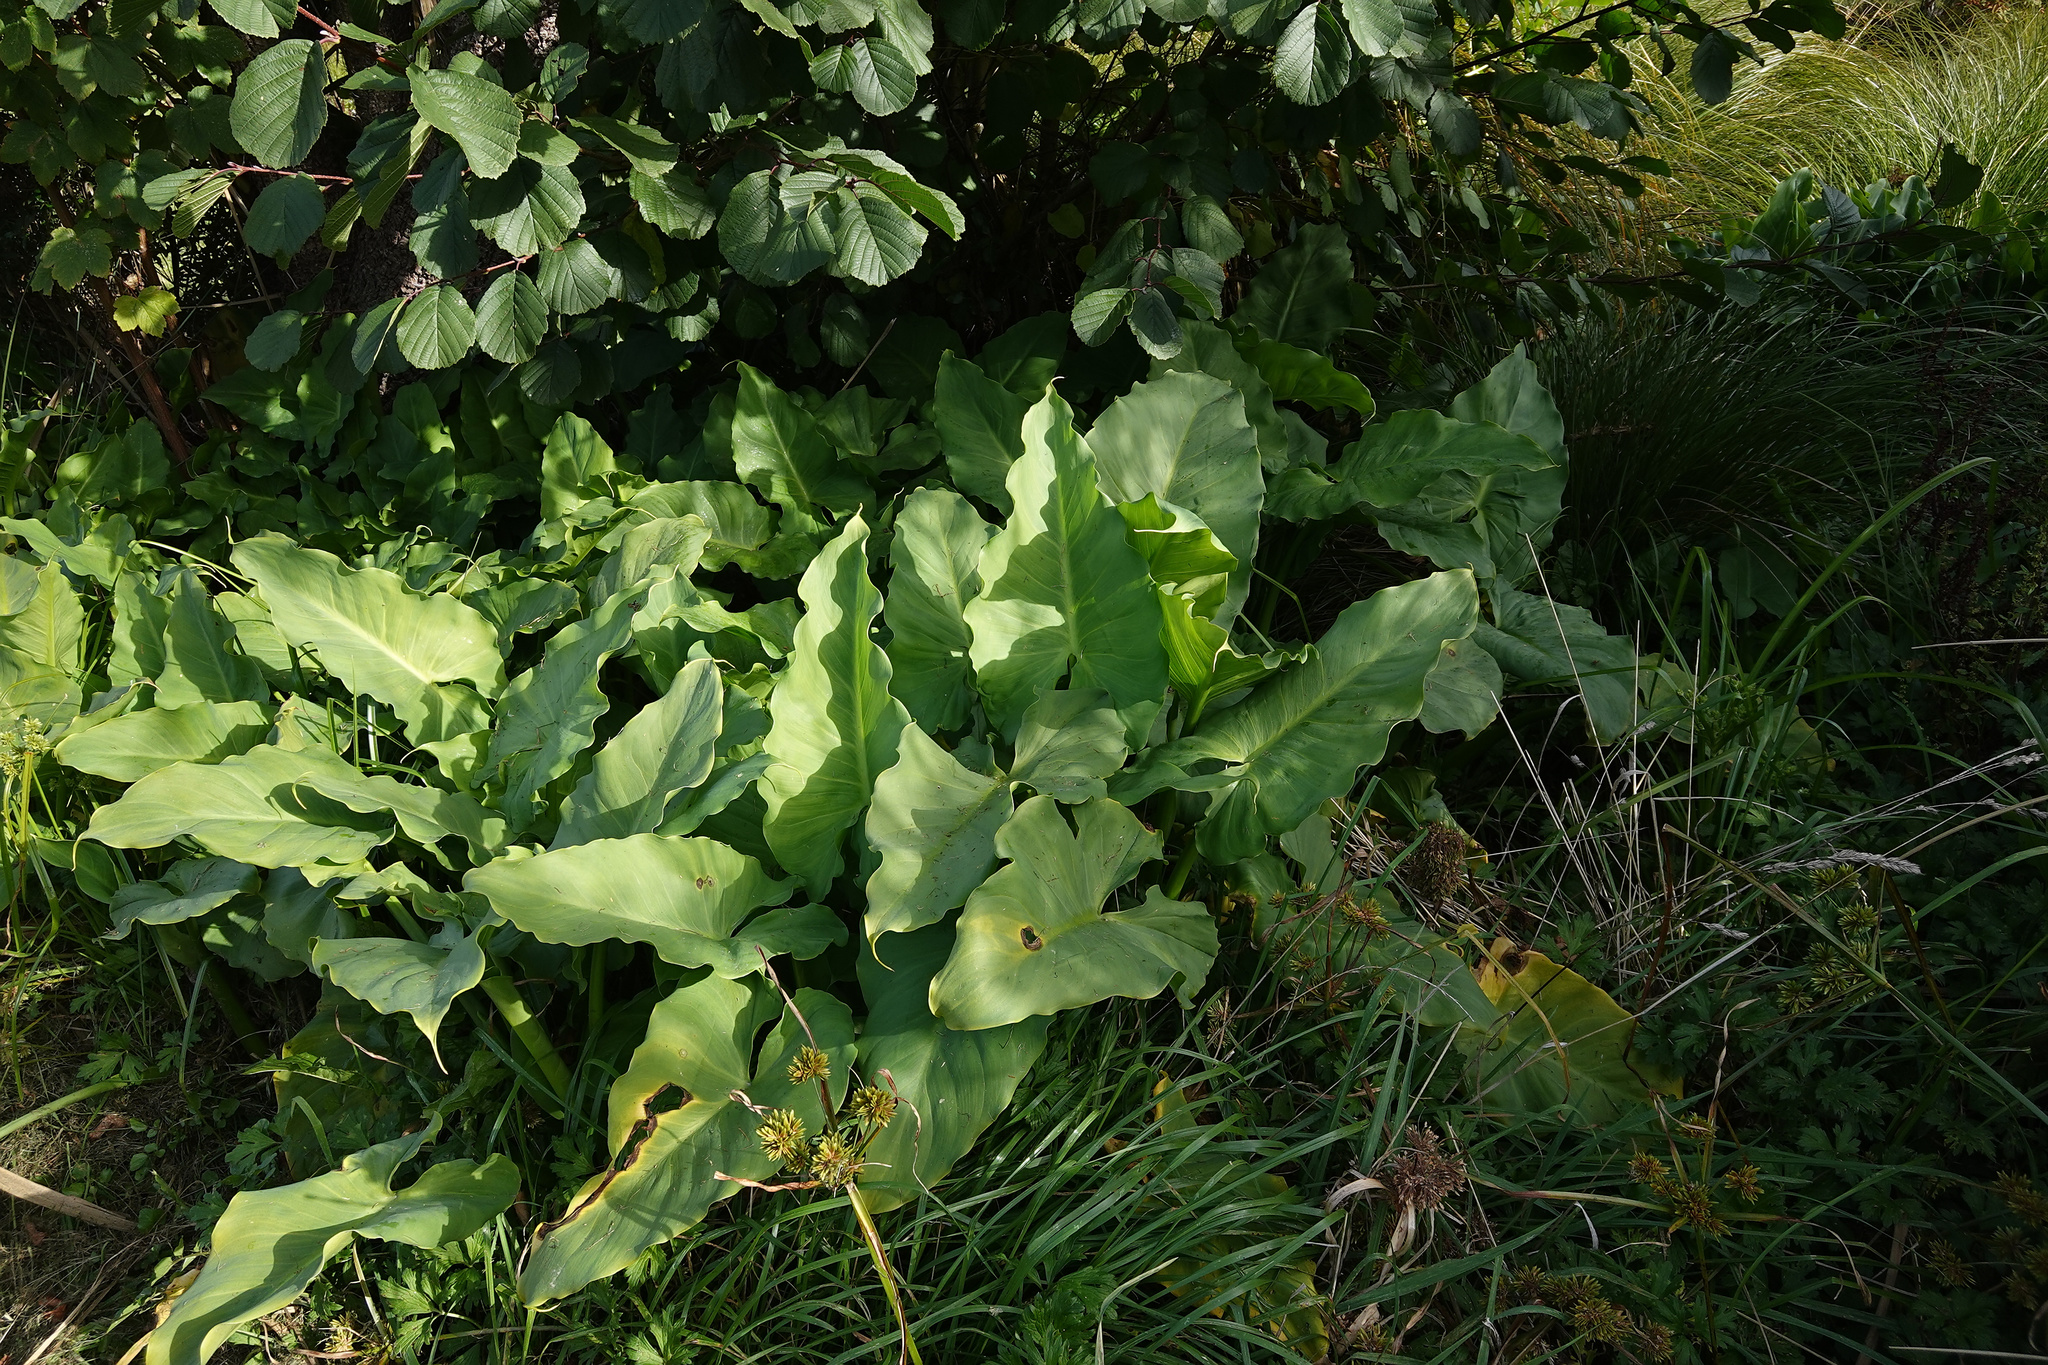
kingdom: Plantae
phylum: Tracheophyta
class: Liliopsida
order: Alismatales
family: Araceae
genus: Zantedeschia
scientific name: Zantedeschia aethiopica
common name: Altar-lily
